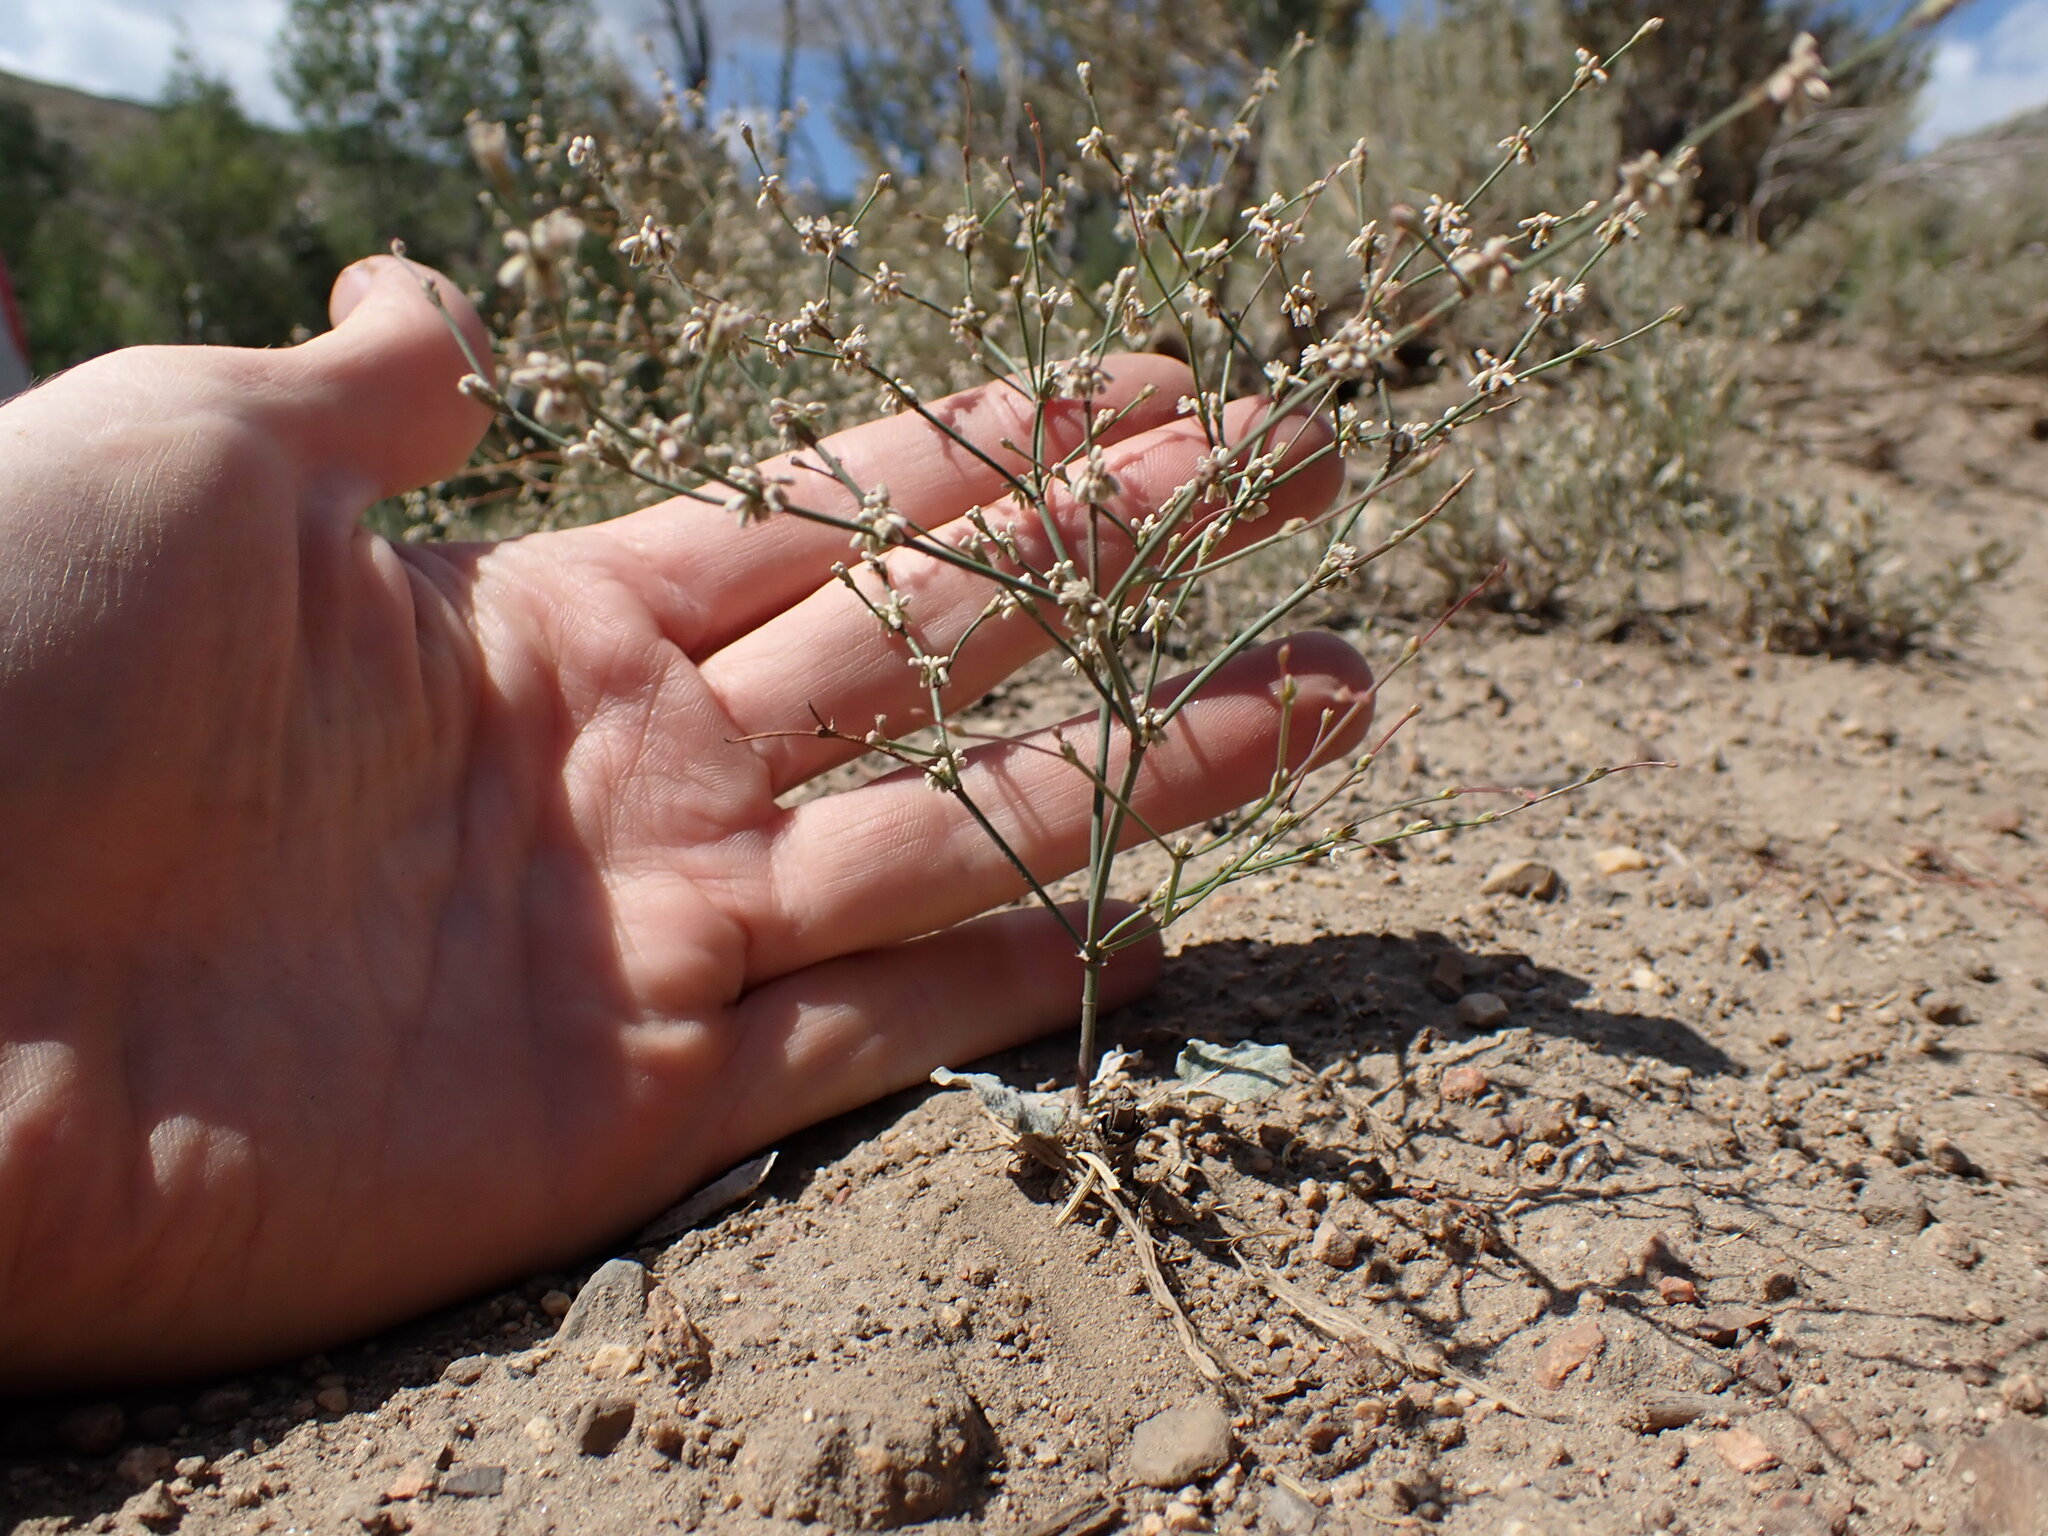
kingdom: Plantae
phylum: Tracheophyta
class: Magnoliopsida
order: Caryophyllales
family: Polygonaceae
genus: Eriogonum
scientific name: Eriogonum baileyi
